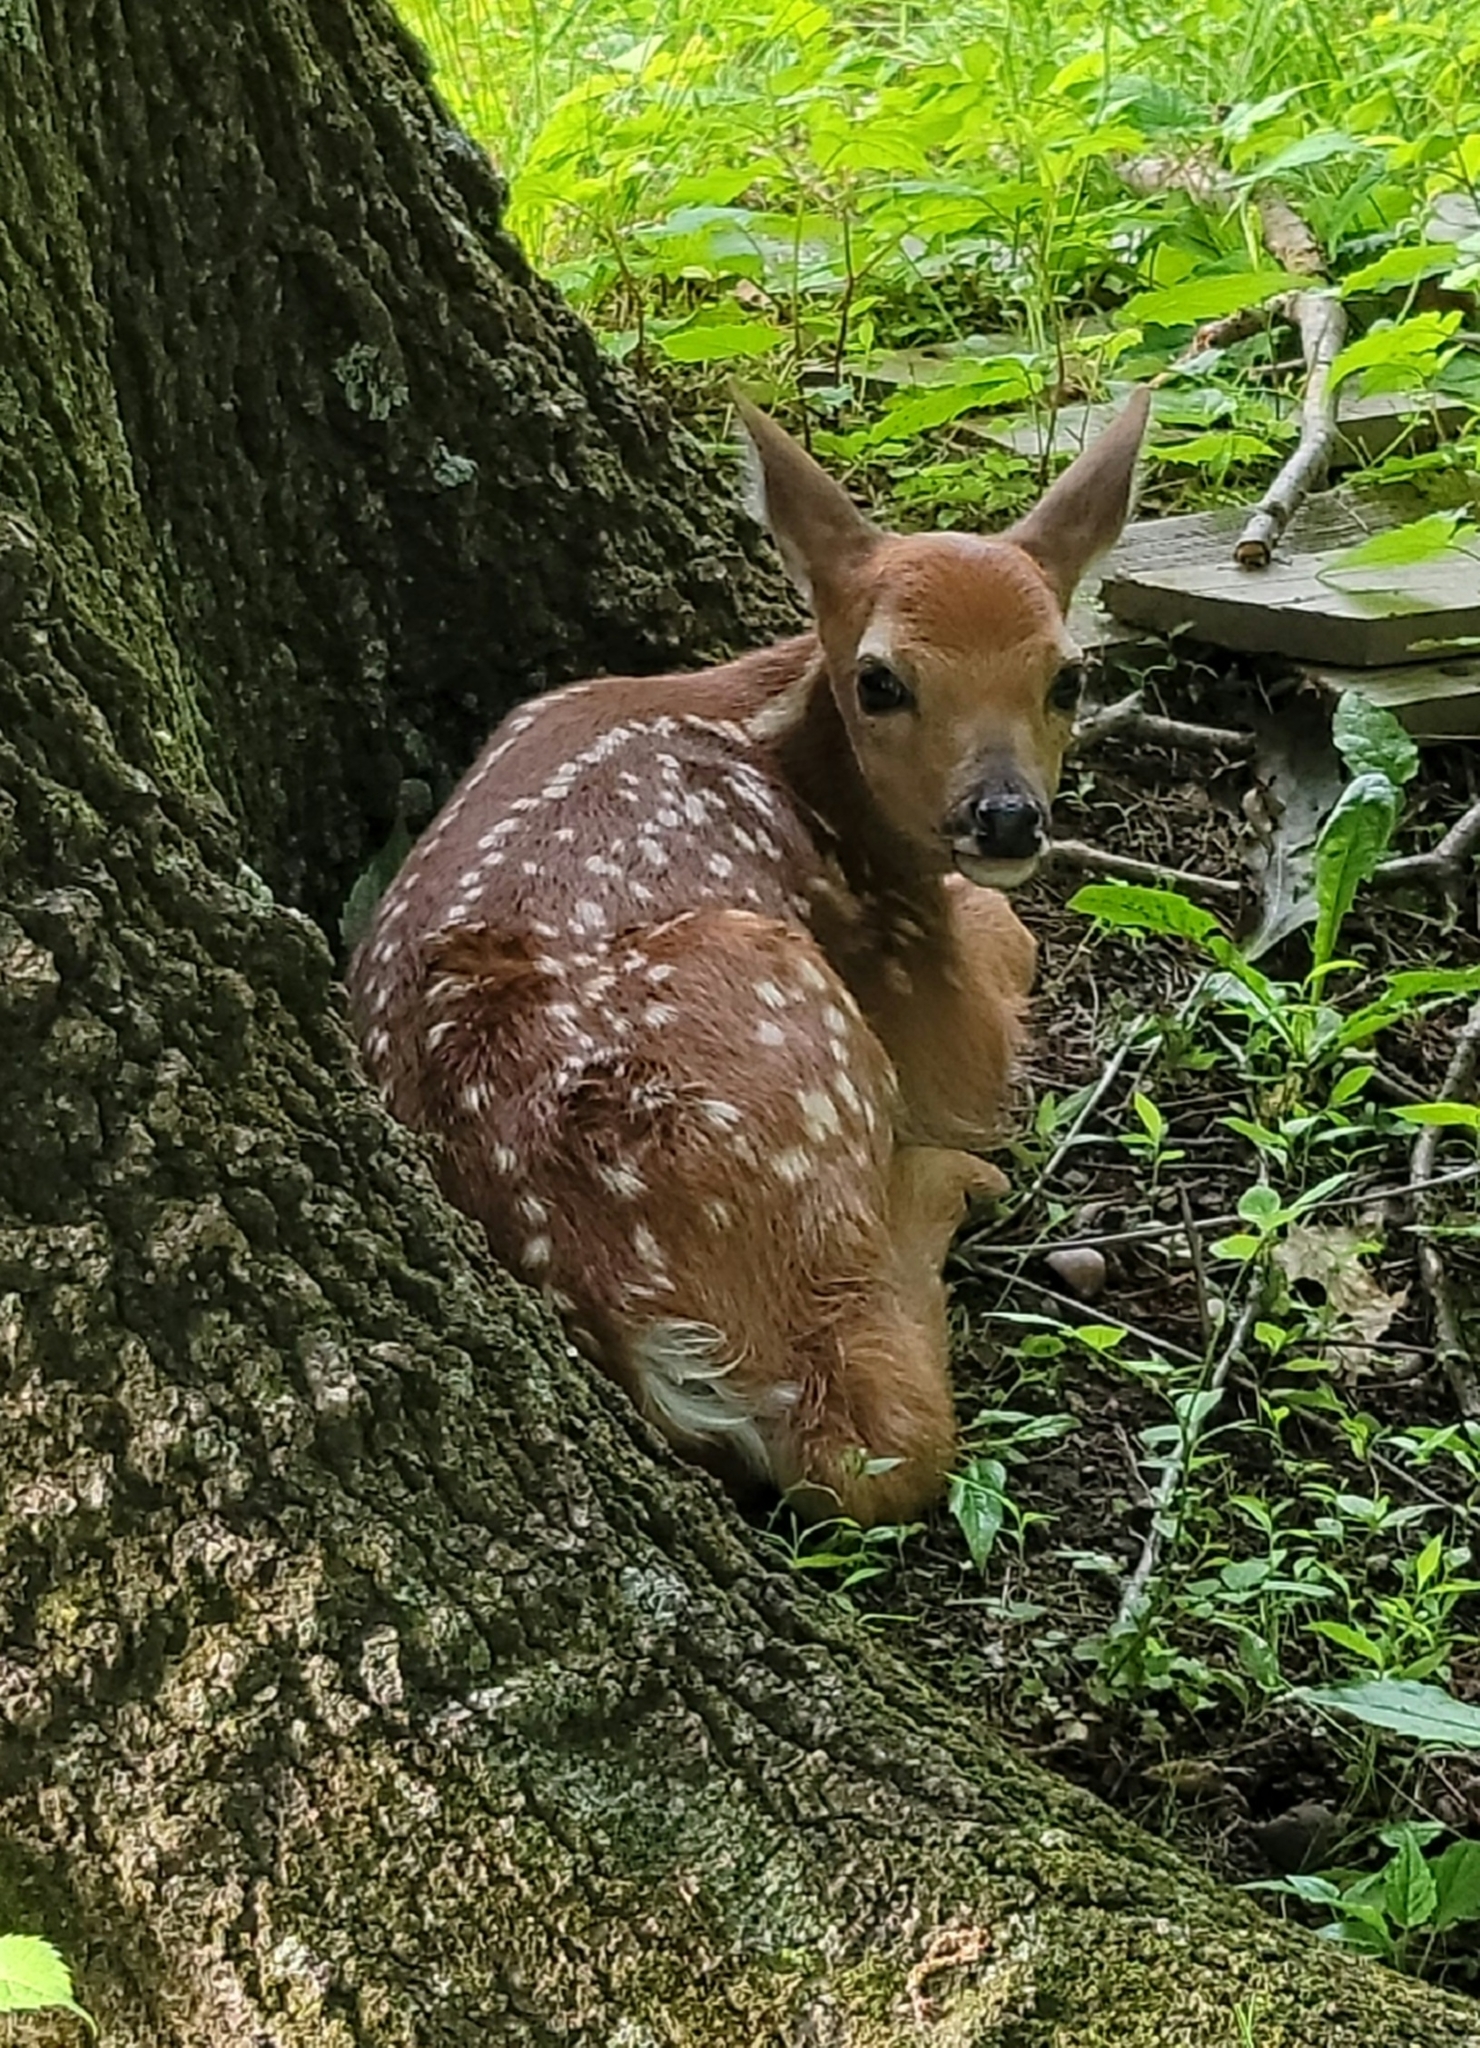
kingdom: Animalia
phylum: Chordata
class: Mammalia
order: Artiodactyla
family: Cervidae
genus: Odocoileus
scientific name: Odocoileus virginianus
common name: White-tailed deer
